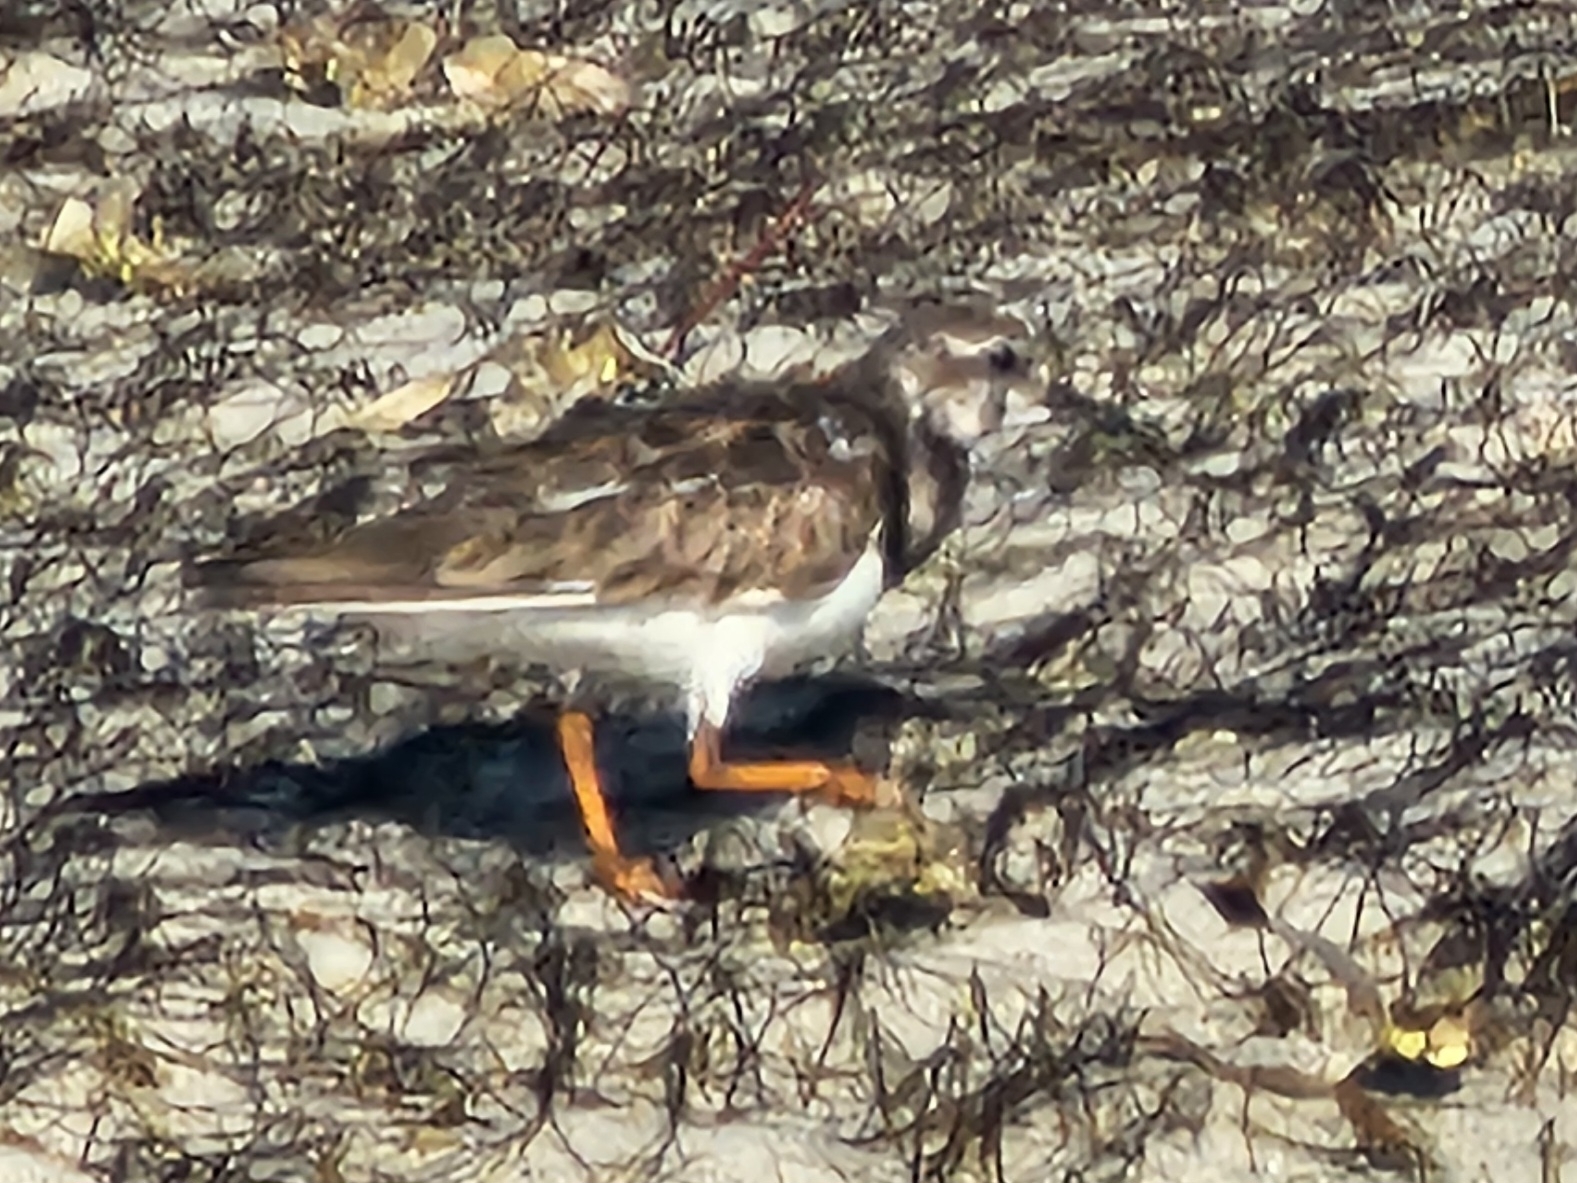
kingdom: Animalia
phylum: Chordata
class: Aves
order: Charadriiformes
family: Scolopacidae
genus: Arenaria
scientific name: Arenaria interpres
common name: Ruddy turnstone
